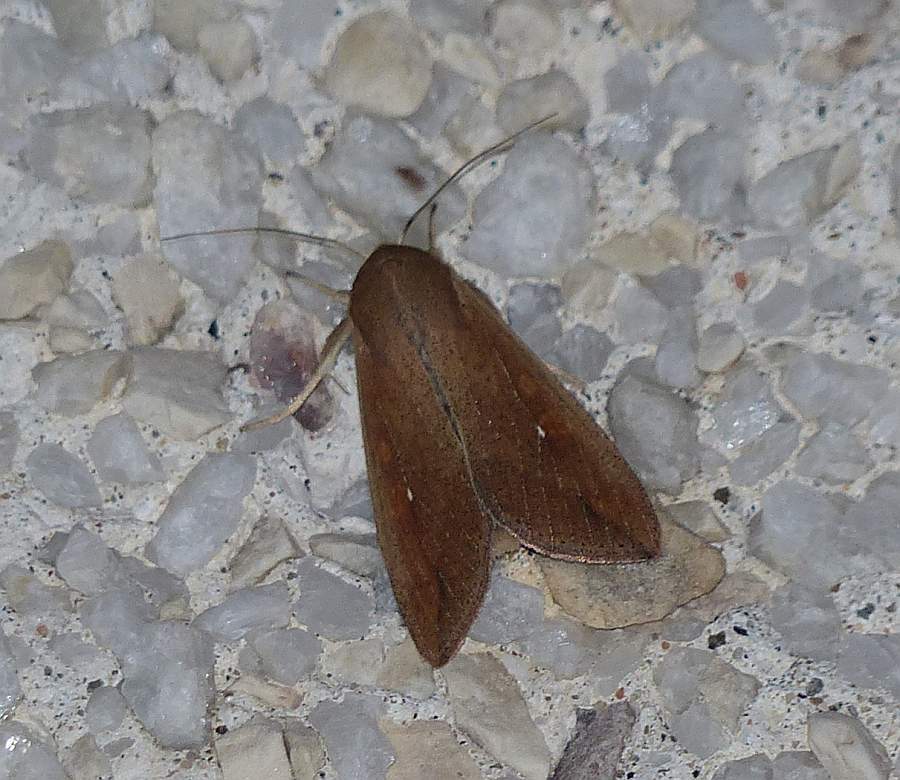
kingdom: Animalia
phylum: Arthropoda
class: Insecta
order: Lepidoptera
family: Noctuidae
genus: Mythimna
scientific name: Mythimna unipuncta
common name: White-speck
